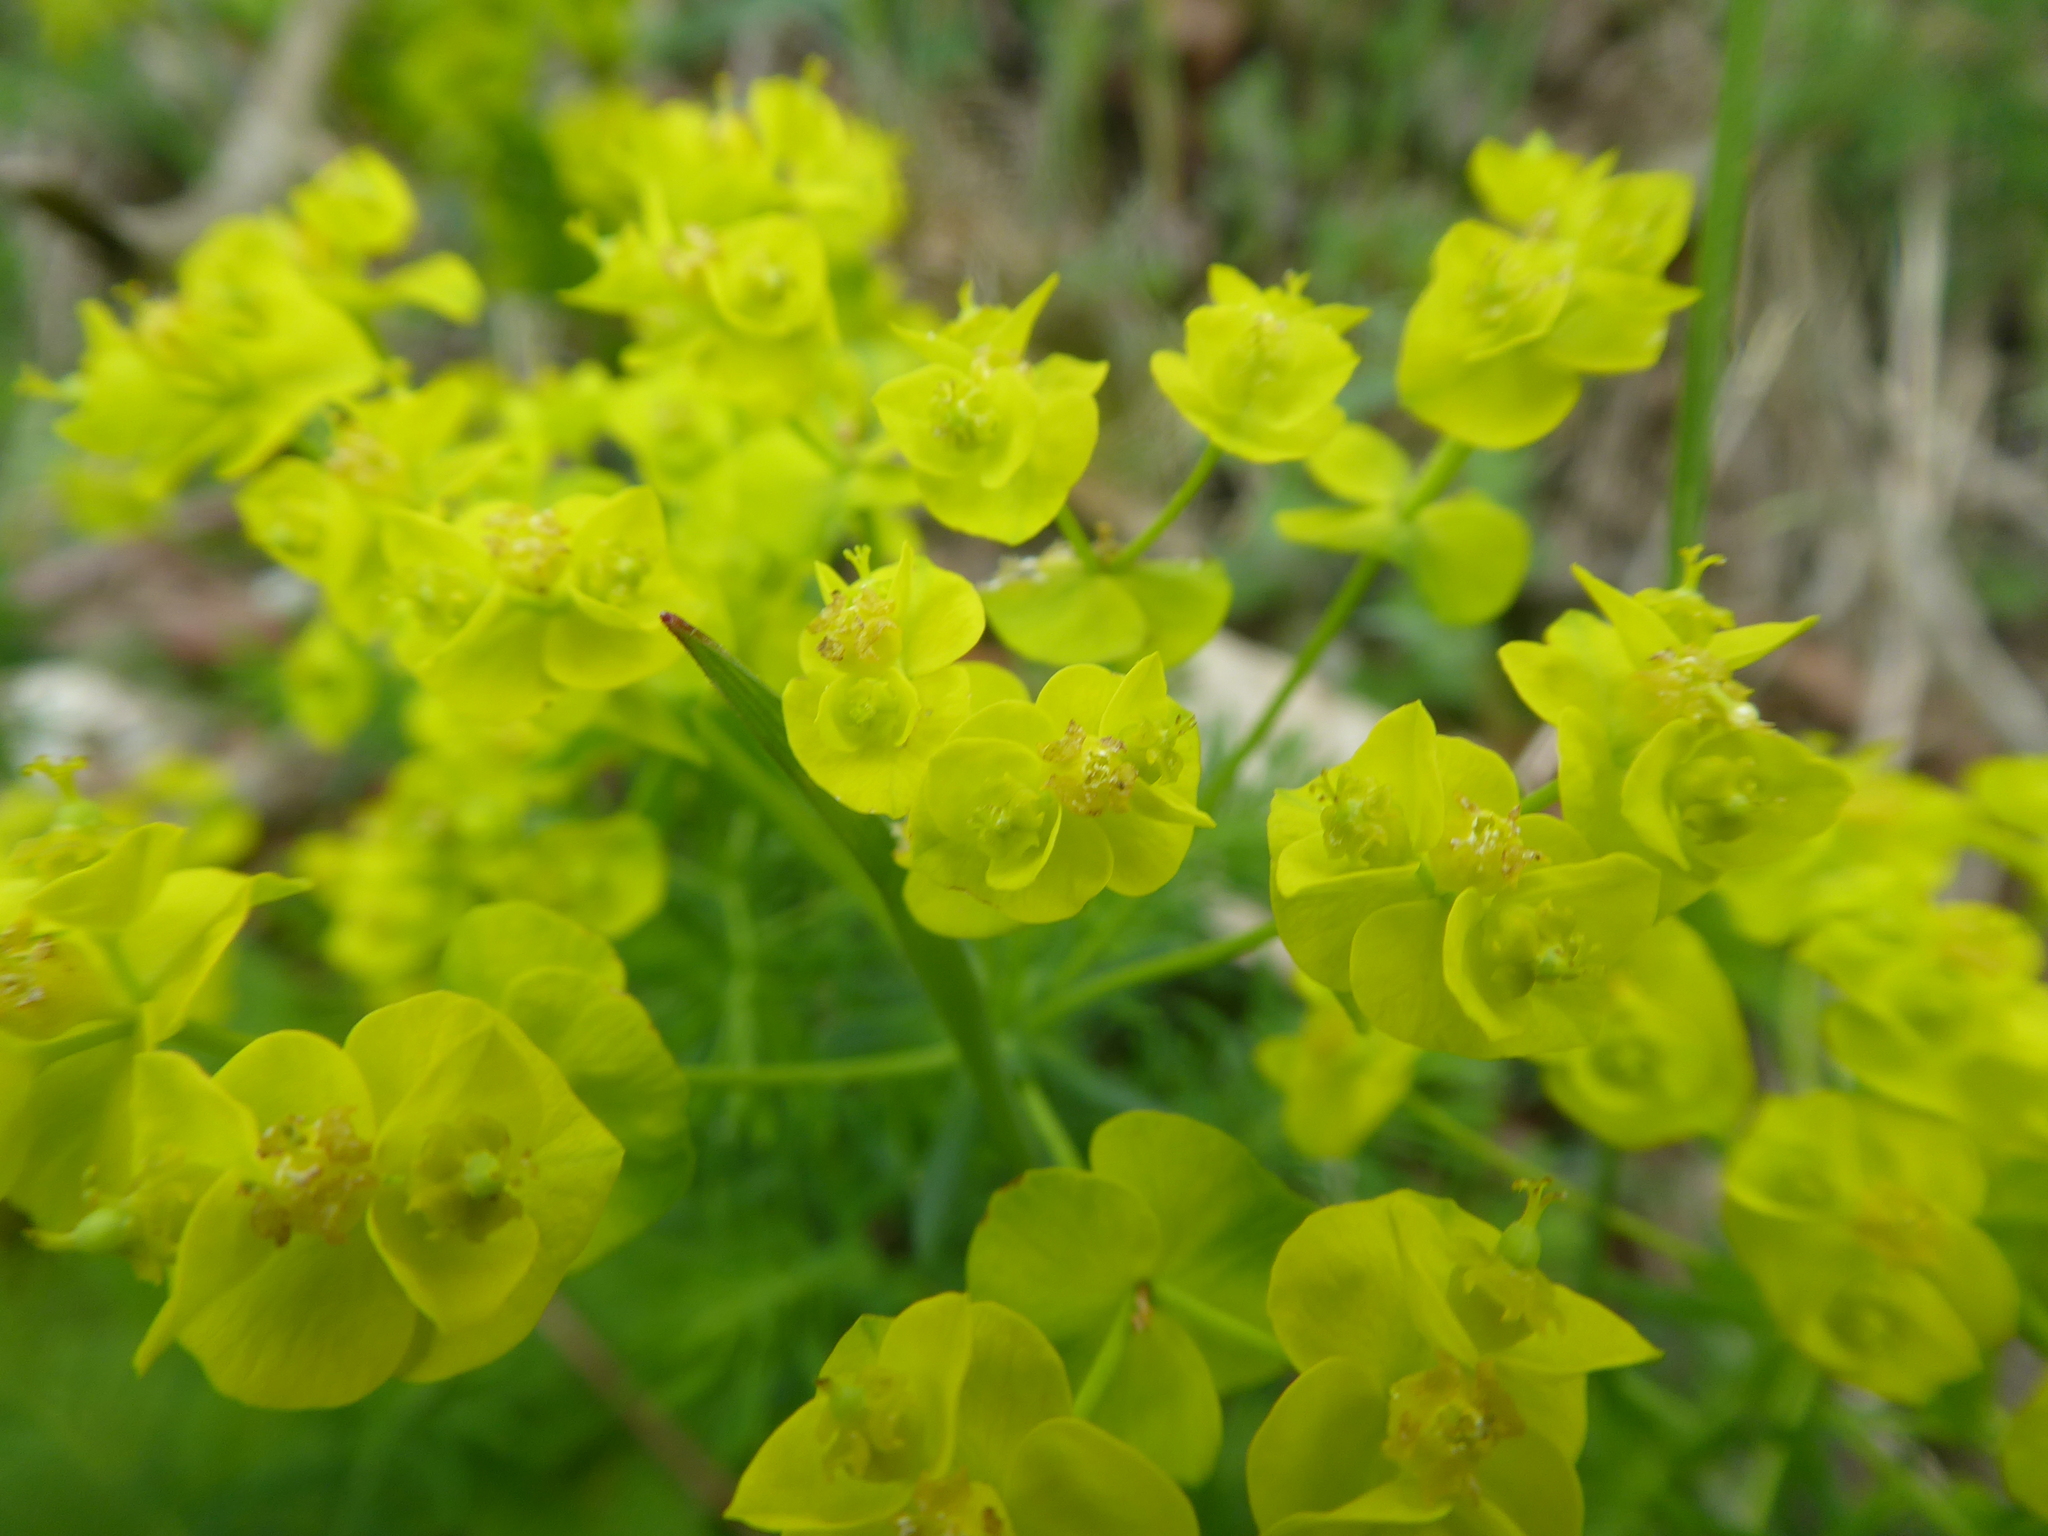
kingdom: Plantae
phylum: Tracheophyta
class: Magnoliopsida
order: Malpighiales
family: Euphorbiaceae
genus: Euphorbia
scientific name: Euphorbia cyparissias
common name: Cypress spurge
